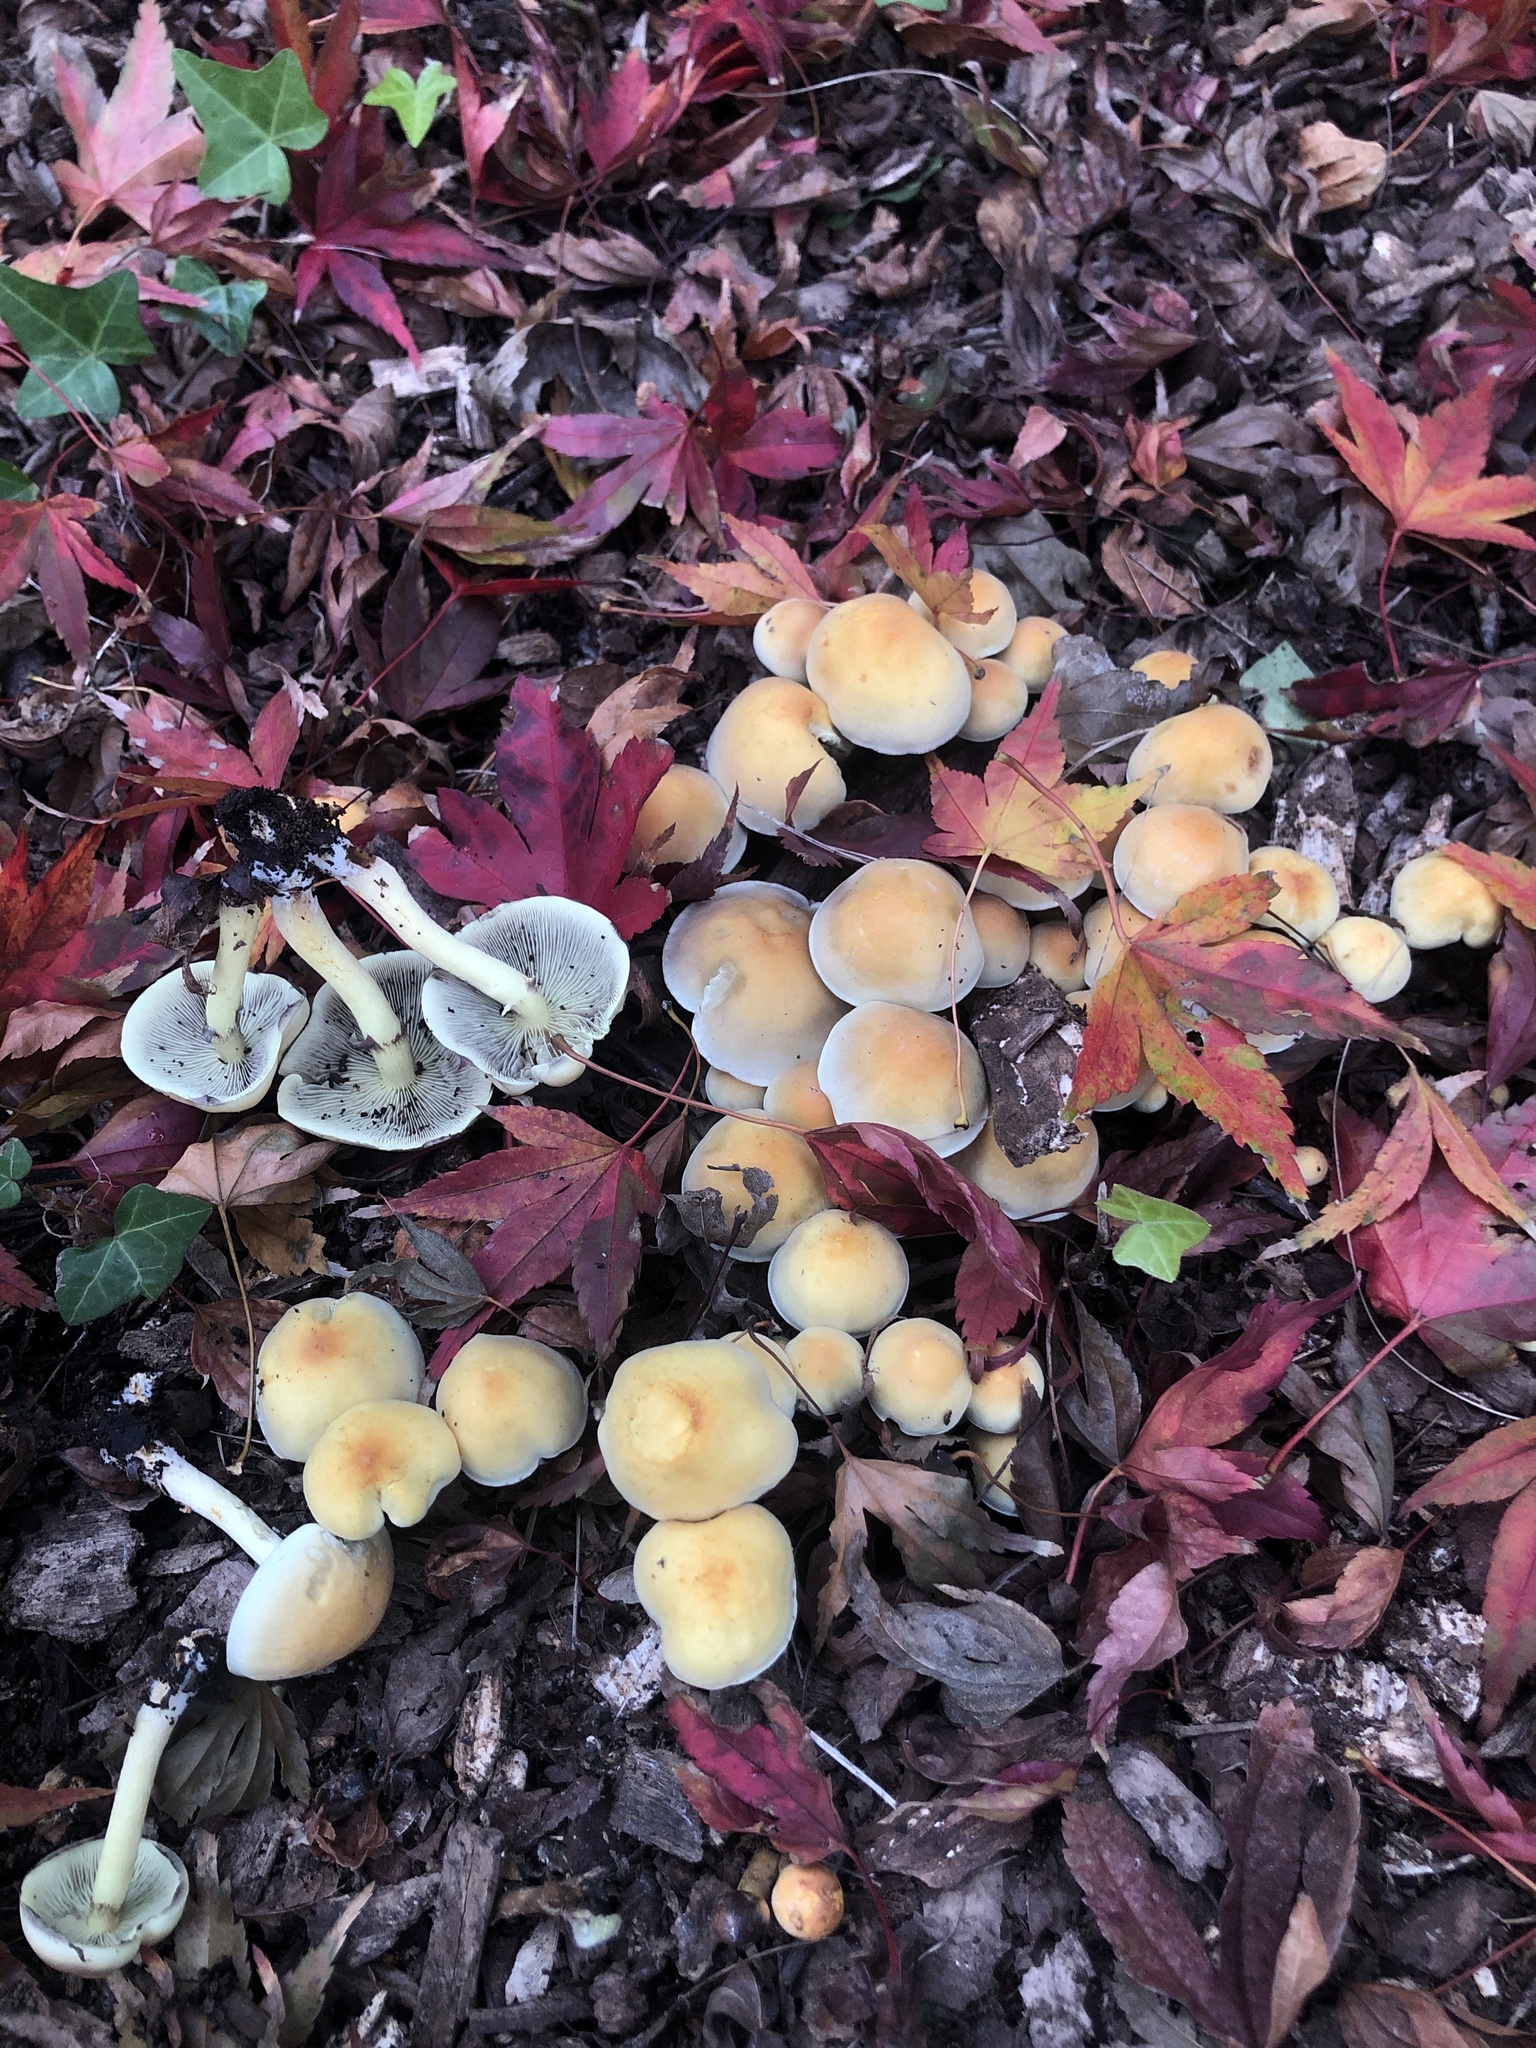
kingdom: Fungi
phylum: Basidiomycota
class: Agaricomycetes
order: Agaricales
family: Strophariaceae
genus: Hypholoma
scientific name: Hypholoma fasciculare
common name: Sulphur tuft
